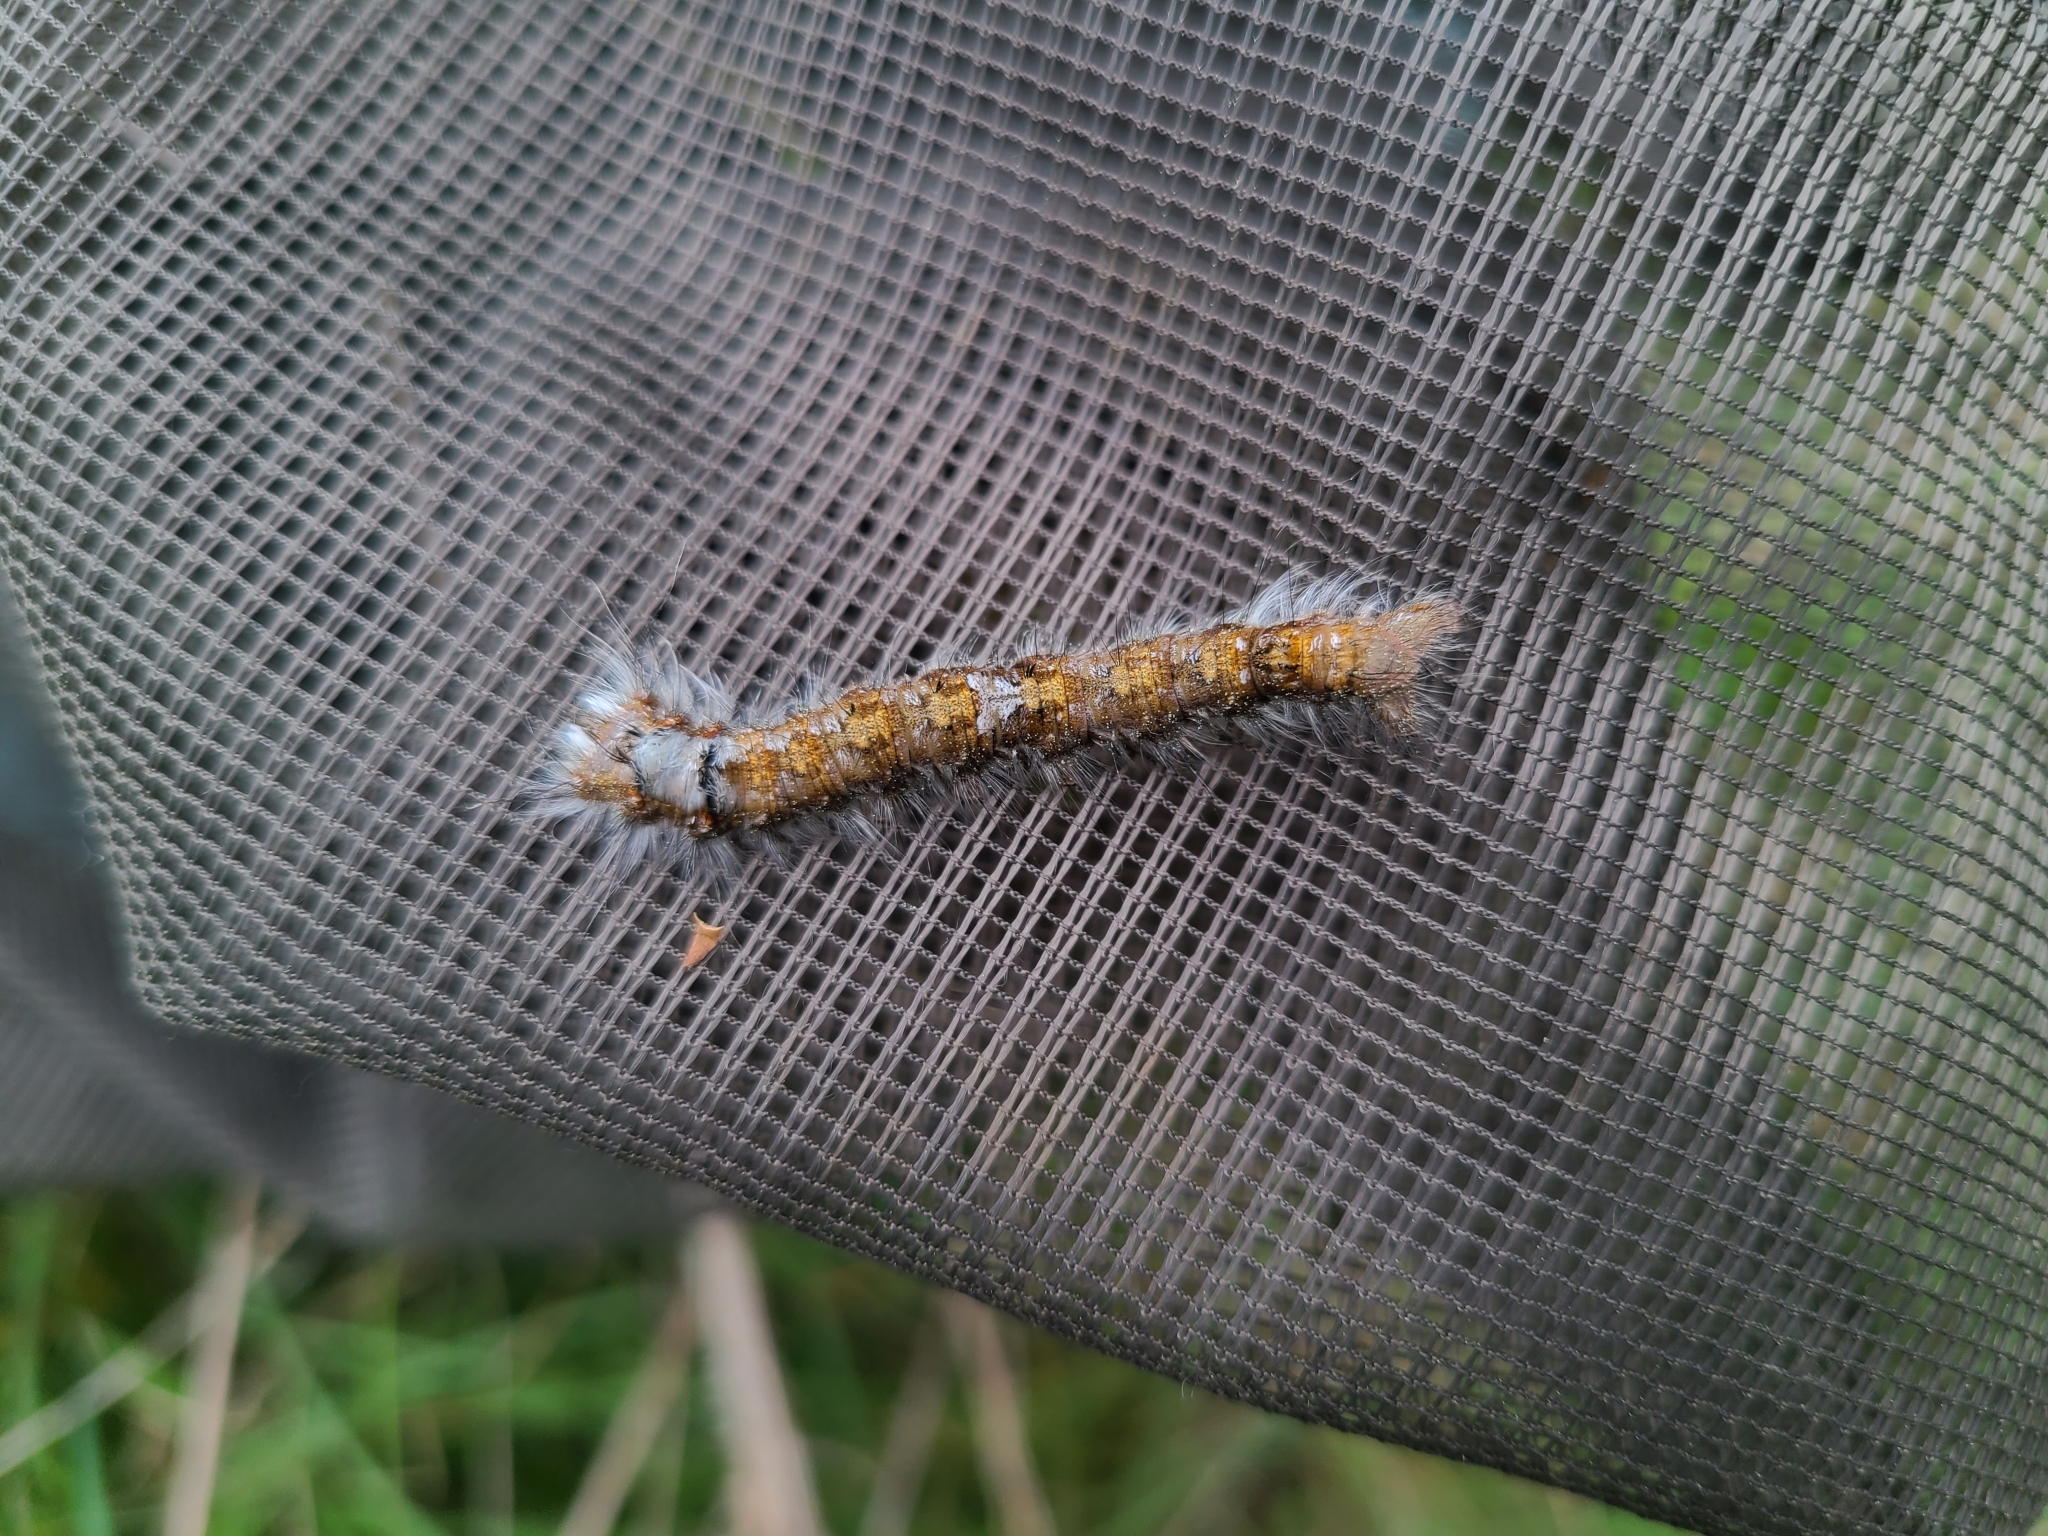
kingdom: Animalia
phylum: Arthropoda
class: Insecta
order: Lepidoptera
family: Lasiocampidae
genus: Dendrolimus
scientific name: Dendrolimus pini
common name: Pine-tree lappet
